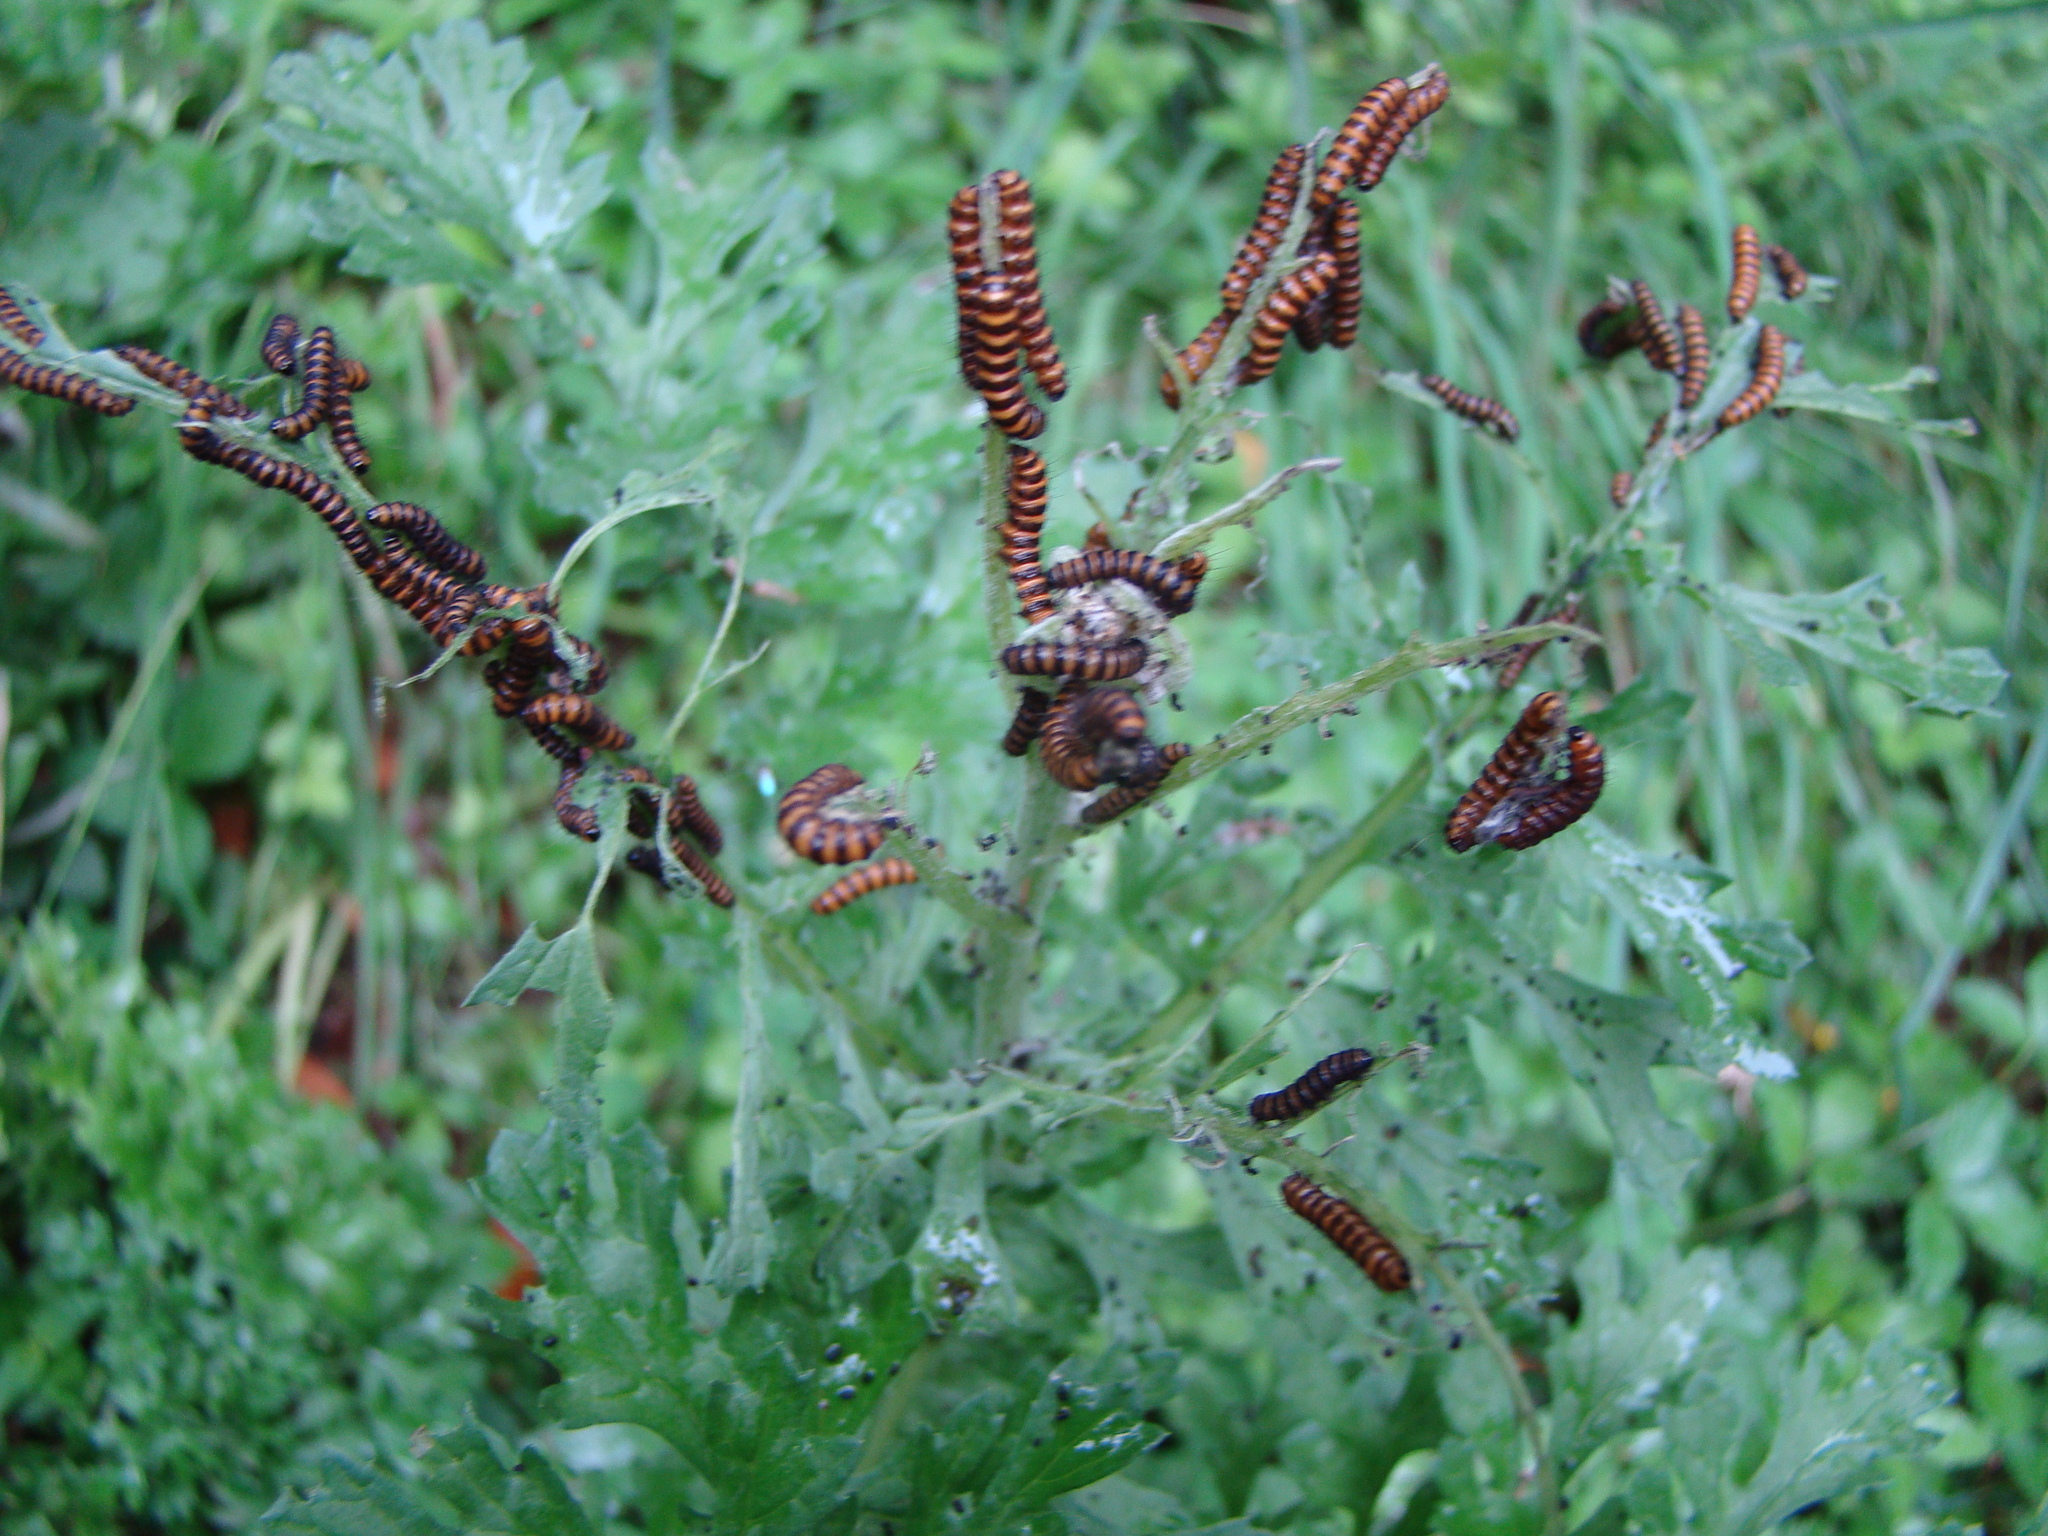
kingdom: Animalia
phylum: Arthropoda
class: Insecta
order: Lepidoptera
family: Erebidae
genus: Tyria
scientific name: Tyria jacobaeae
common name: Cinnabar
